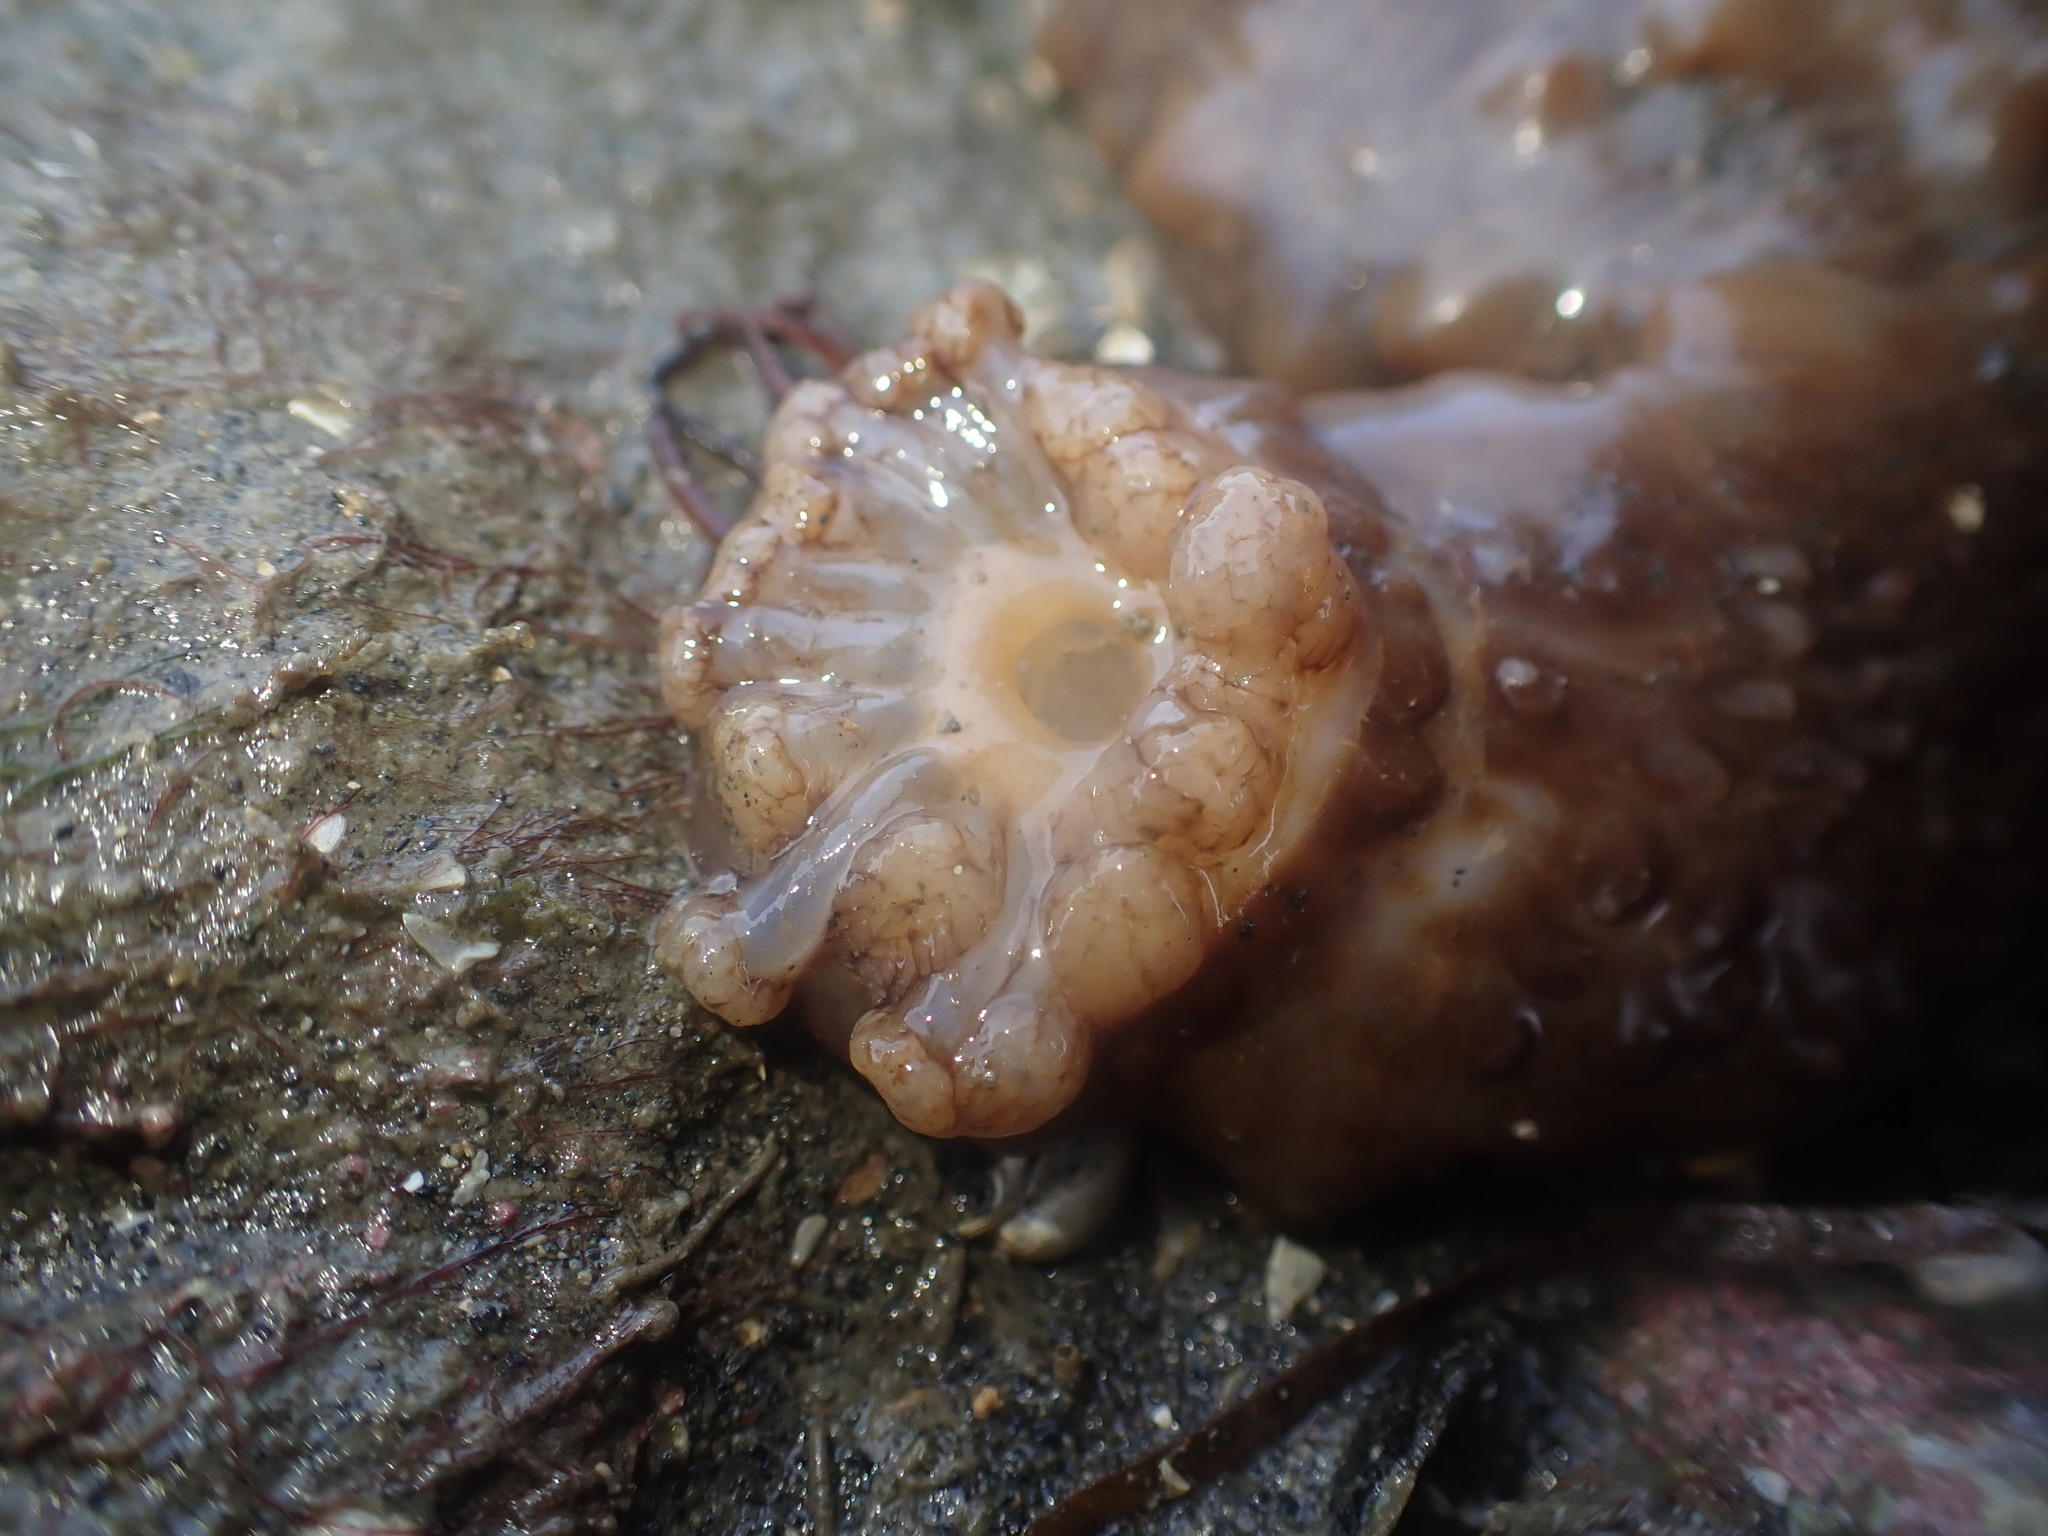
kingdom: Animalia
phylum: Echinodermata
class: Holothuroidea
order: Synallactida
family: Stichopodidae
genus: Australostichopus
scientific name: Australostichopus mollis
